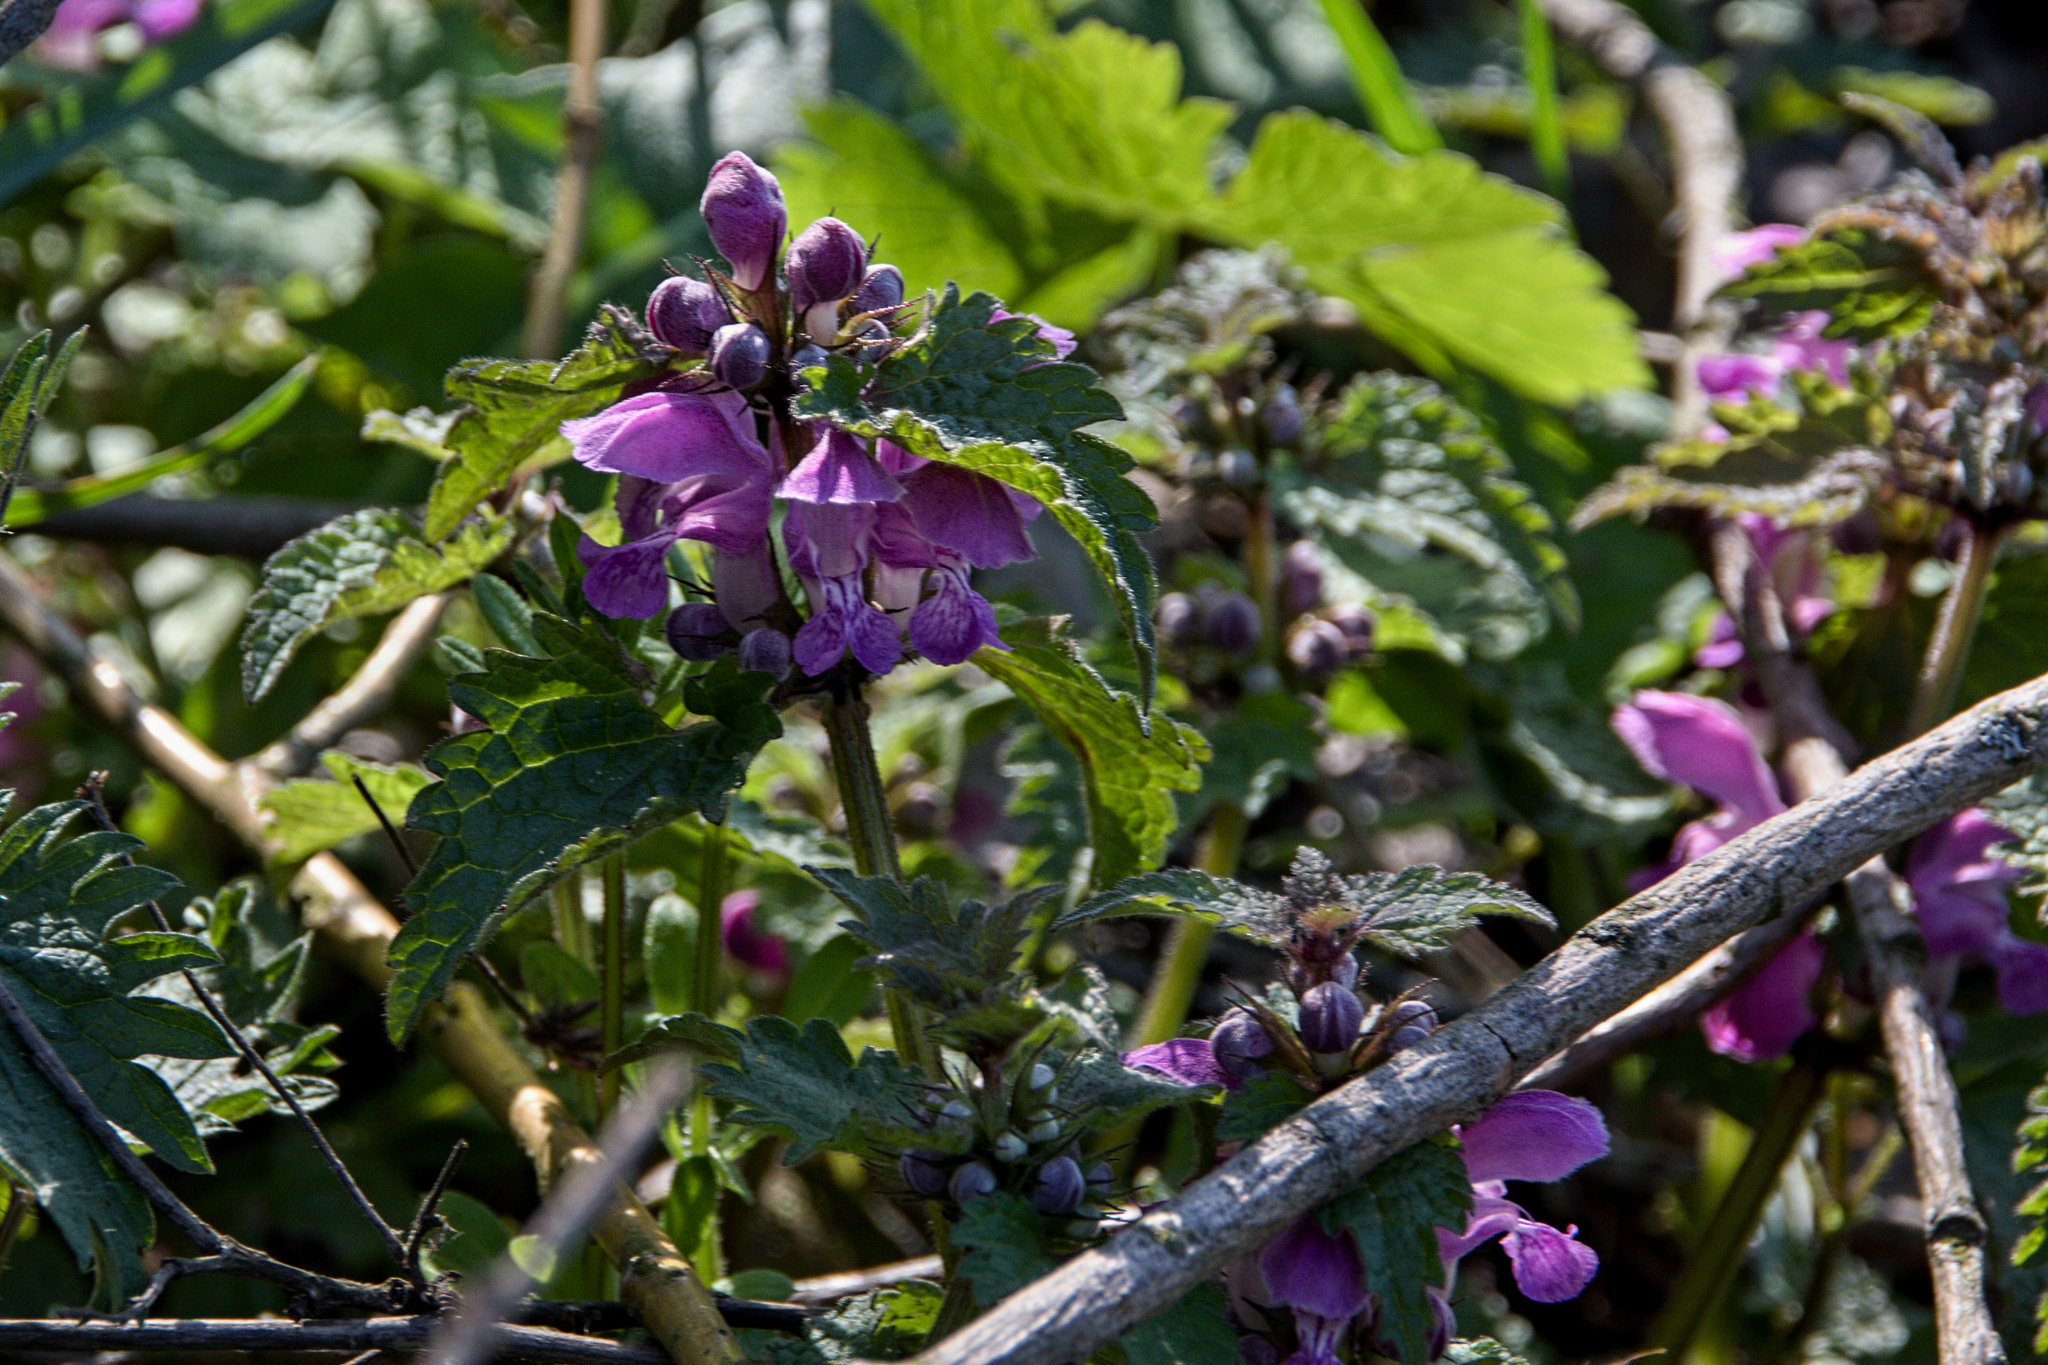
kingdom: Plantae
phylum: Tracheophyta
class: Magnoliopsida
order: Lamiales
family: Lamiaceae
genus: Lamium
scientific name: Lamium maculatum
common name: Spotted dead-nettle
